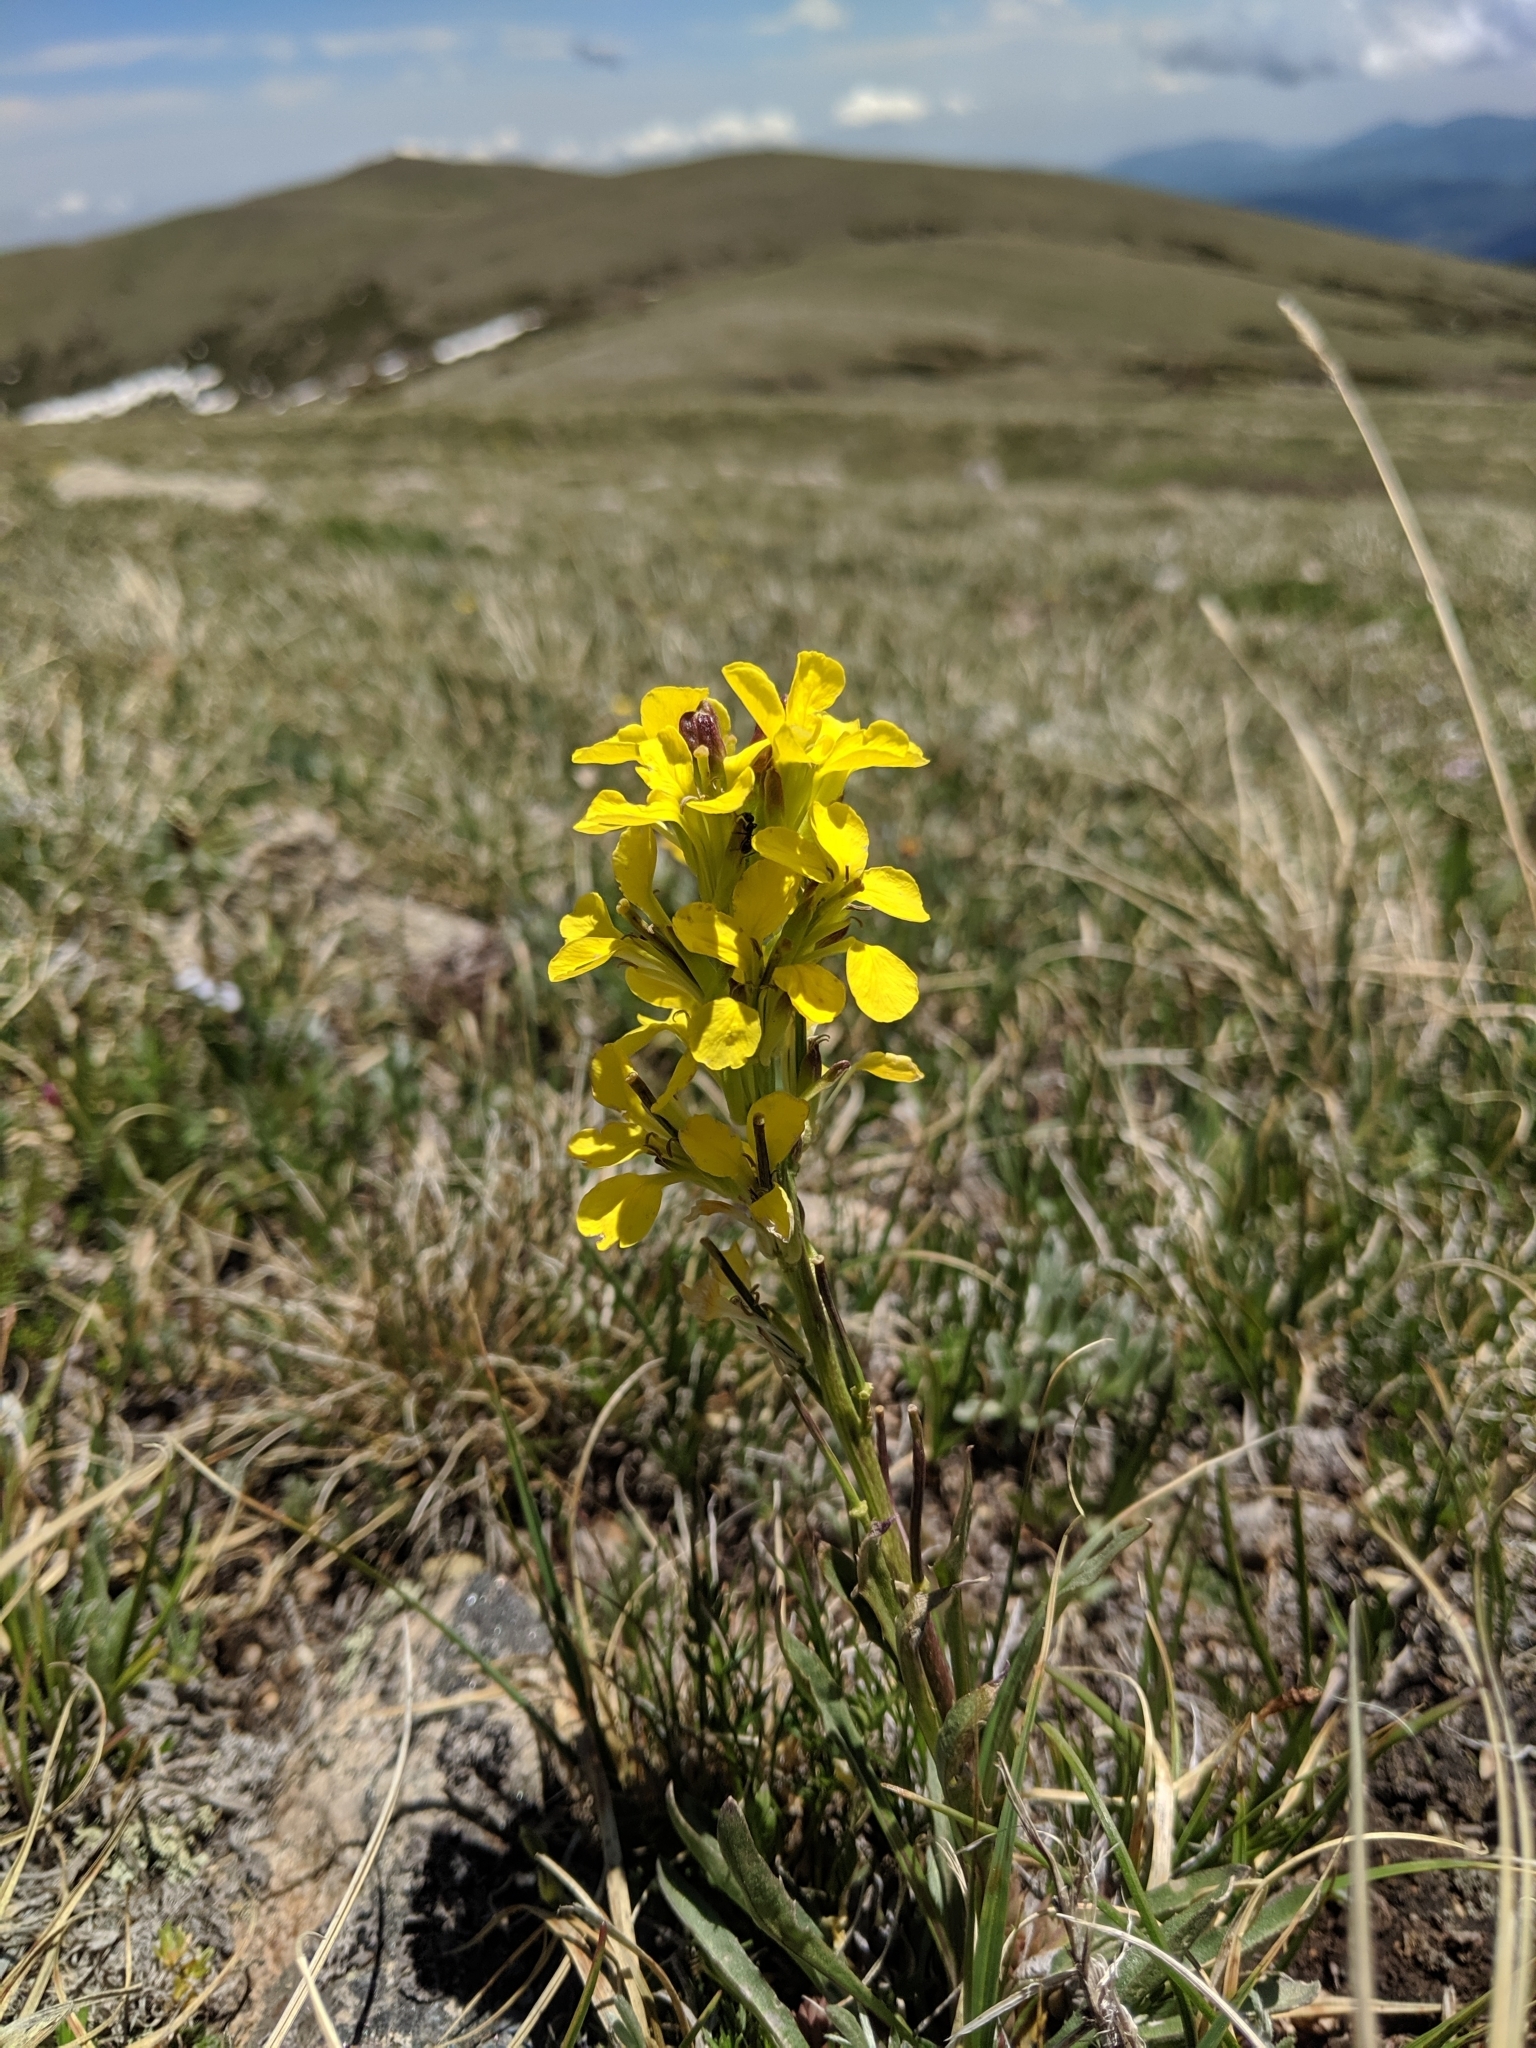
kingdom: Plantae
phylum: Tracheophyta
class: Magnoliopsida
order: Brassicales
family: Brassicaceae
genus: Erysimum
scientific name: Erysimum capitatum
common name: Western wallflower
